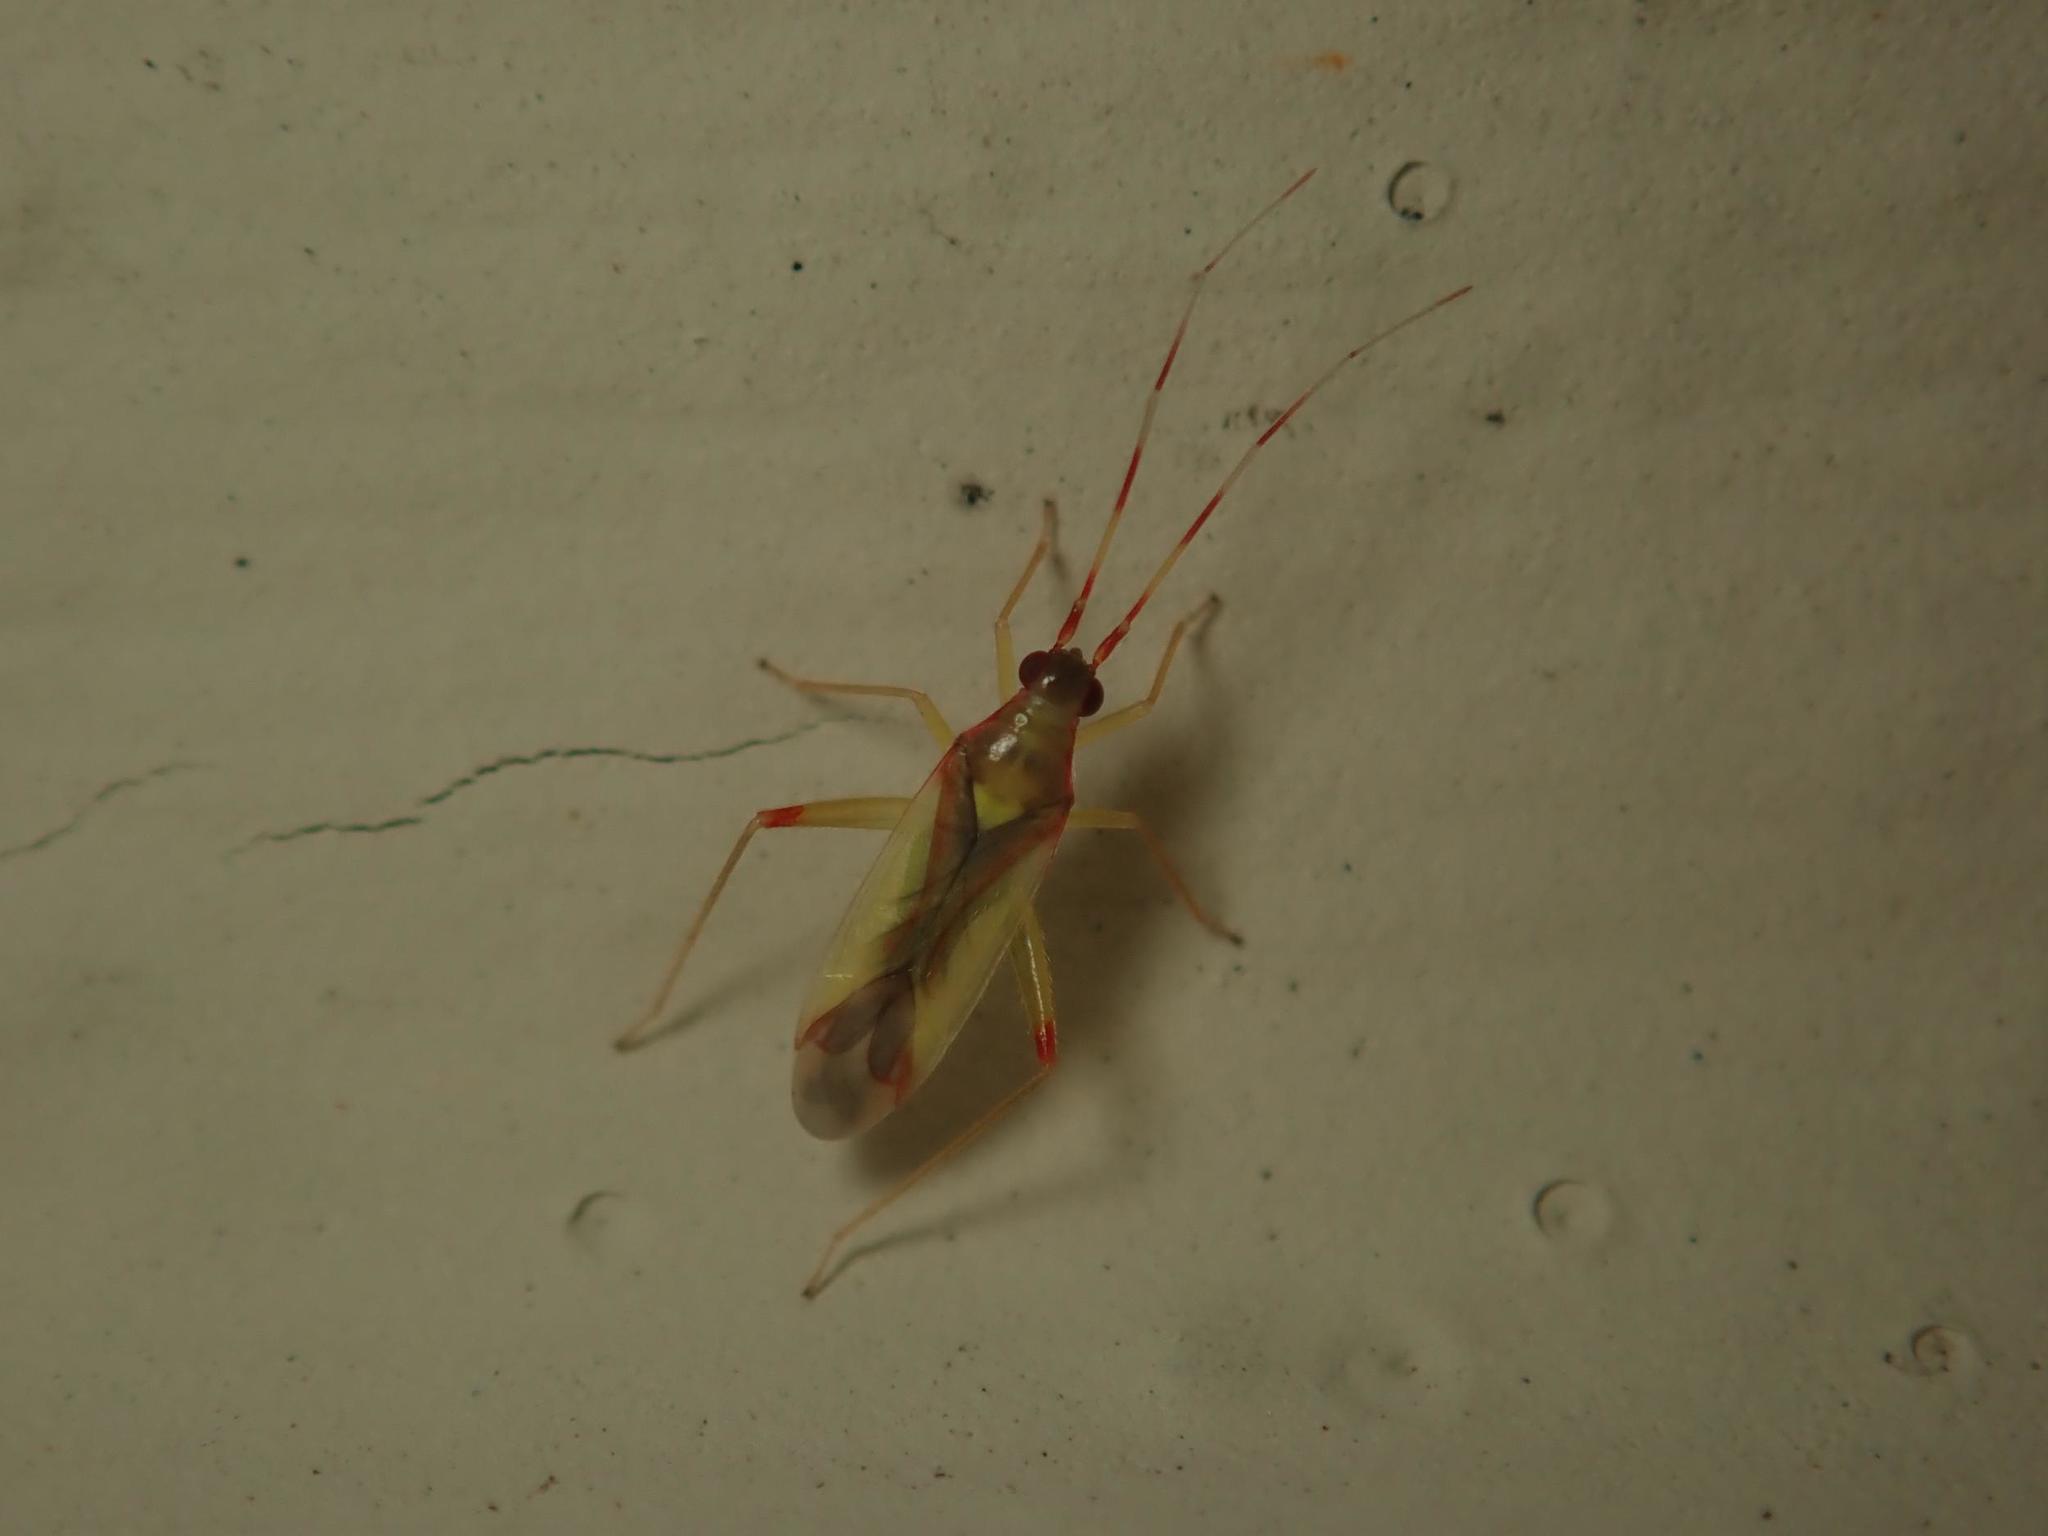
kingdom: Animalia
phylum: Arthropoda
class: Insecta
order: Hemiptera
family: Miridae
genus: Campyloneura
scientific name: Campyloneura virgula
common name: Predatory bug
